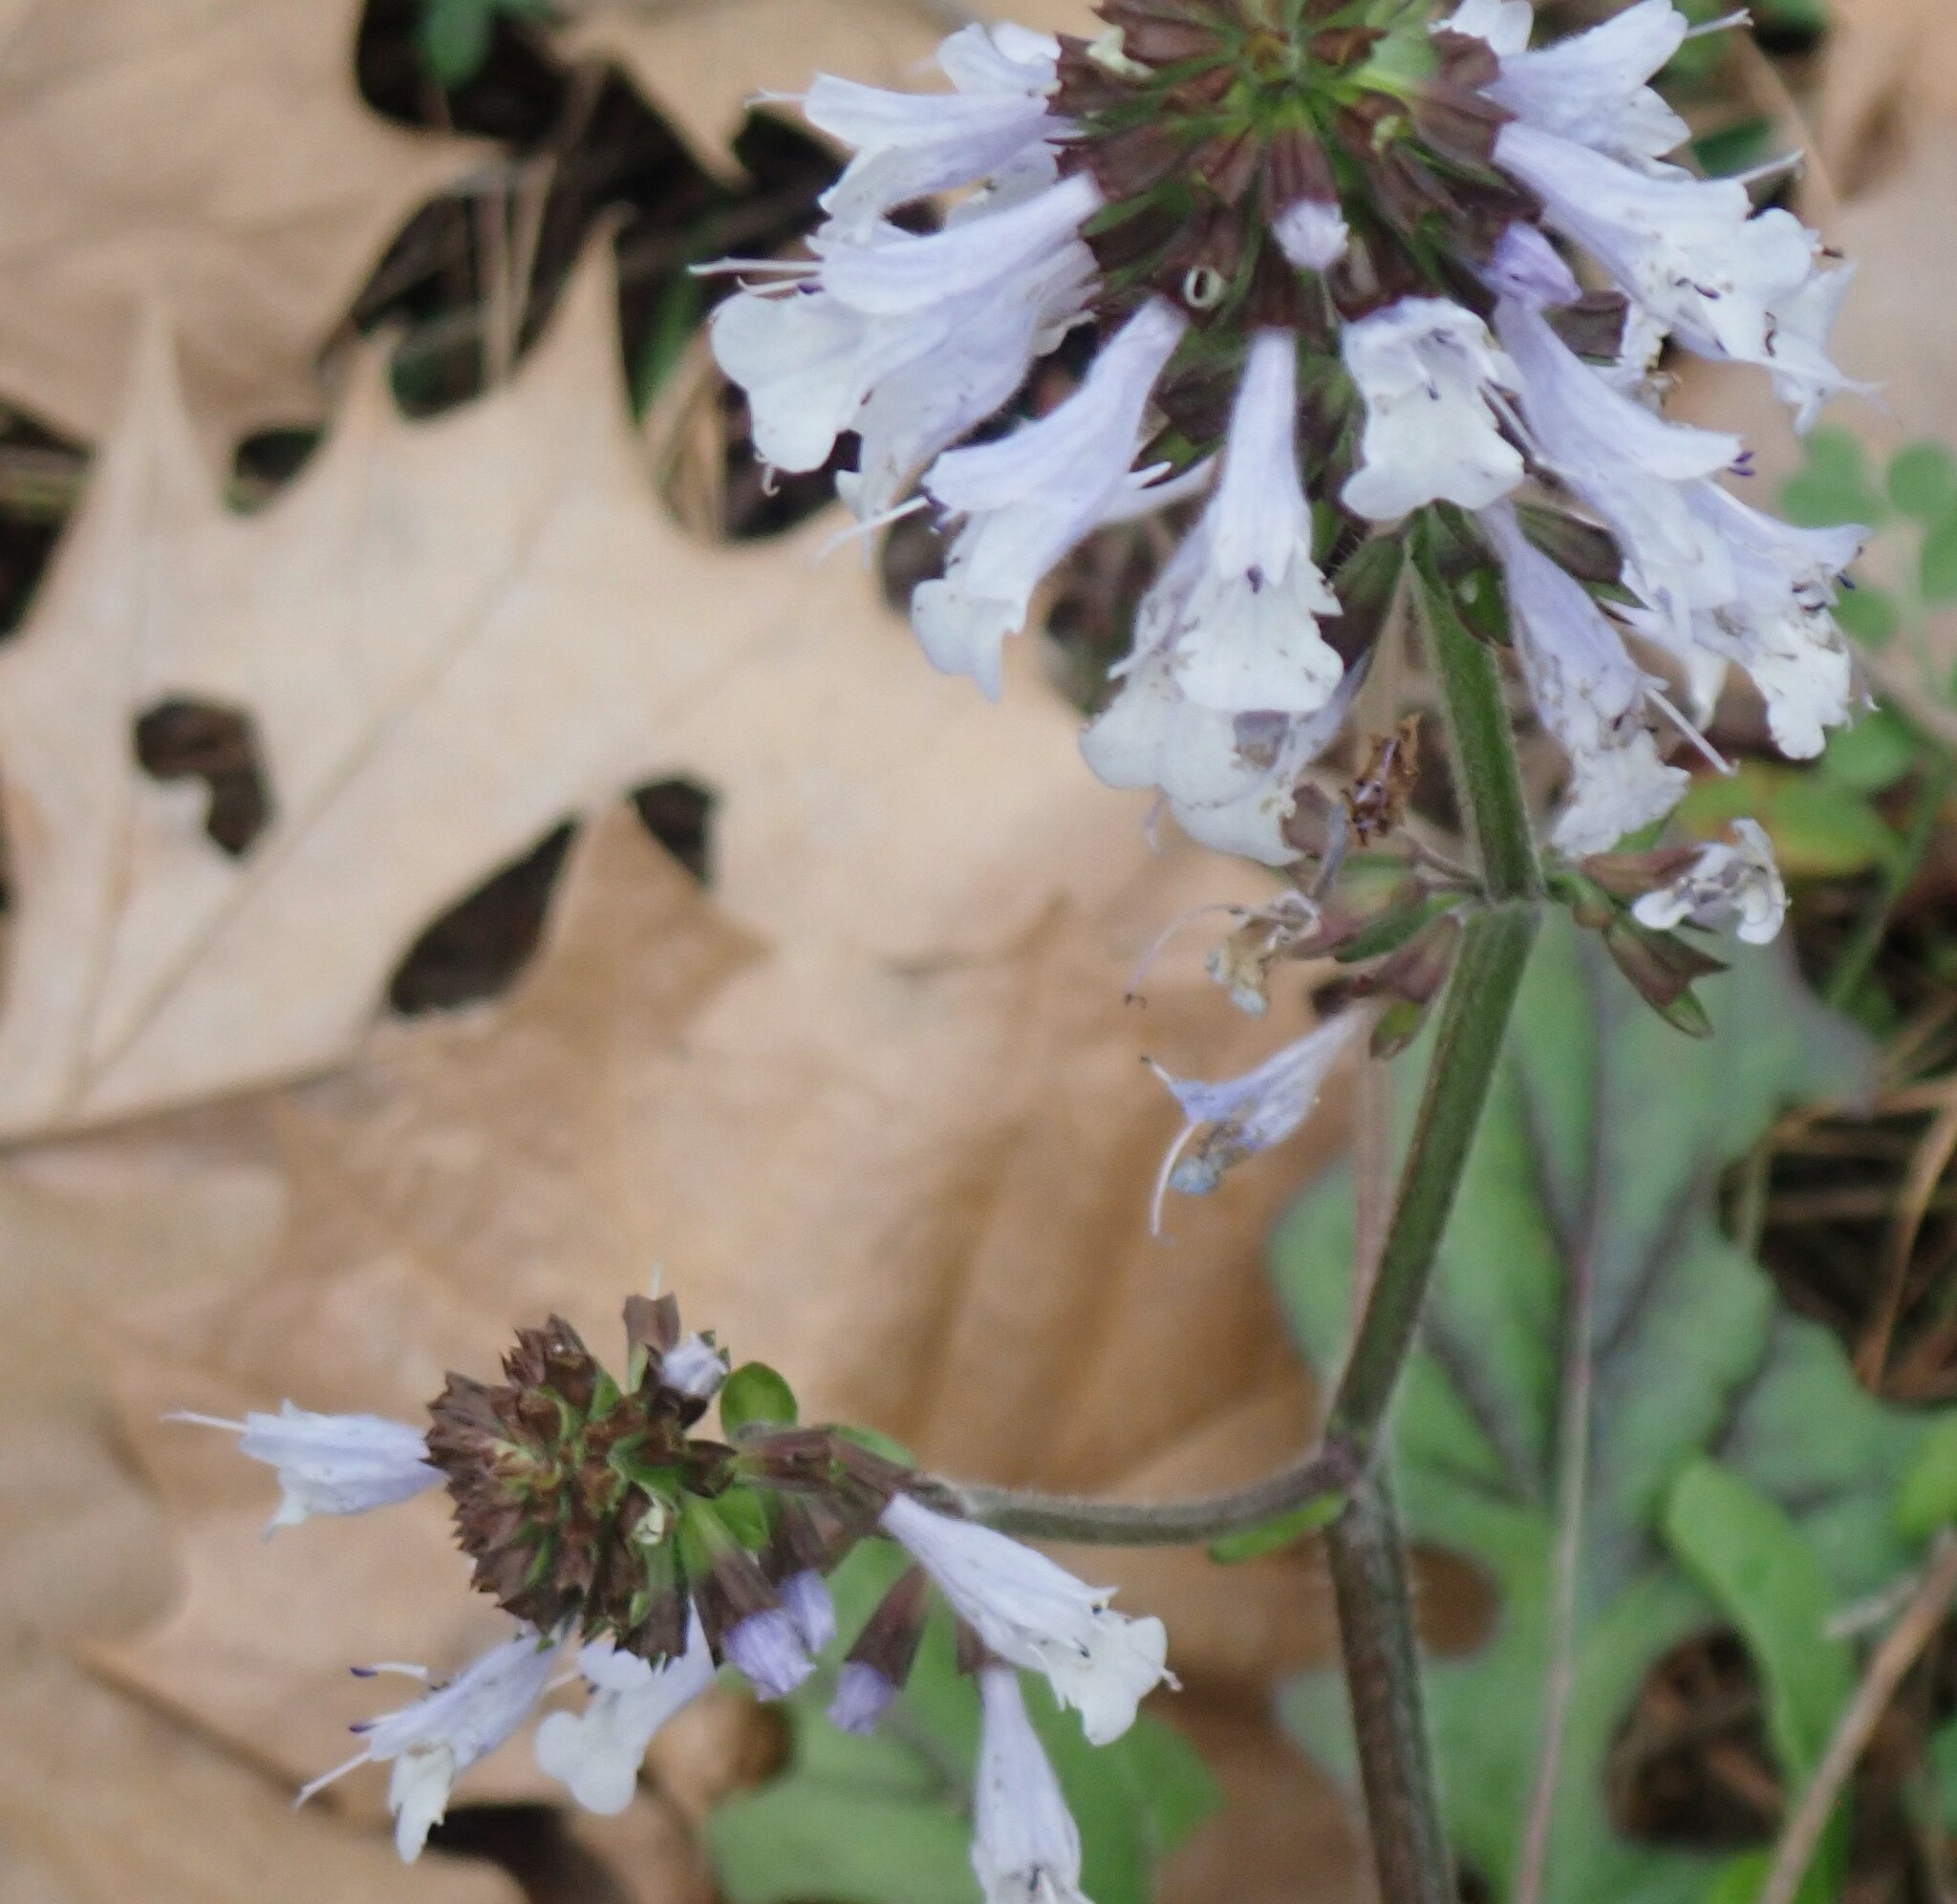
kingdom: Plantae
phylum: Tracheophyta
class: Magnoliopsida
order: Lamiales
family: Lamiaceae
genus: Salvia
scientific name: Salvia lyrata
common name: Cancerweed
